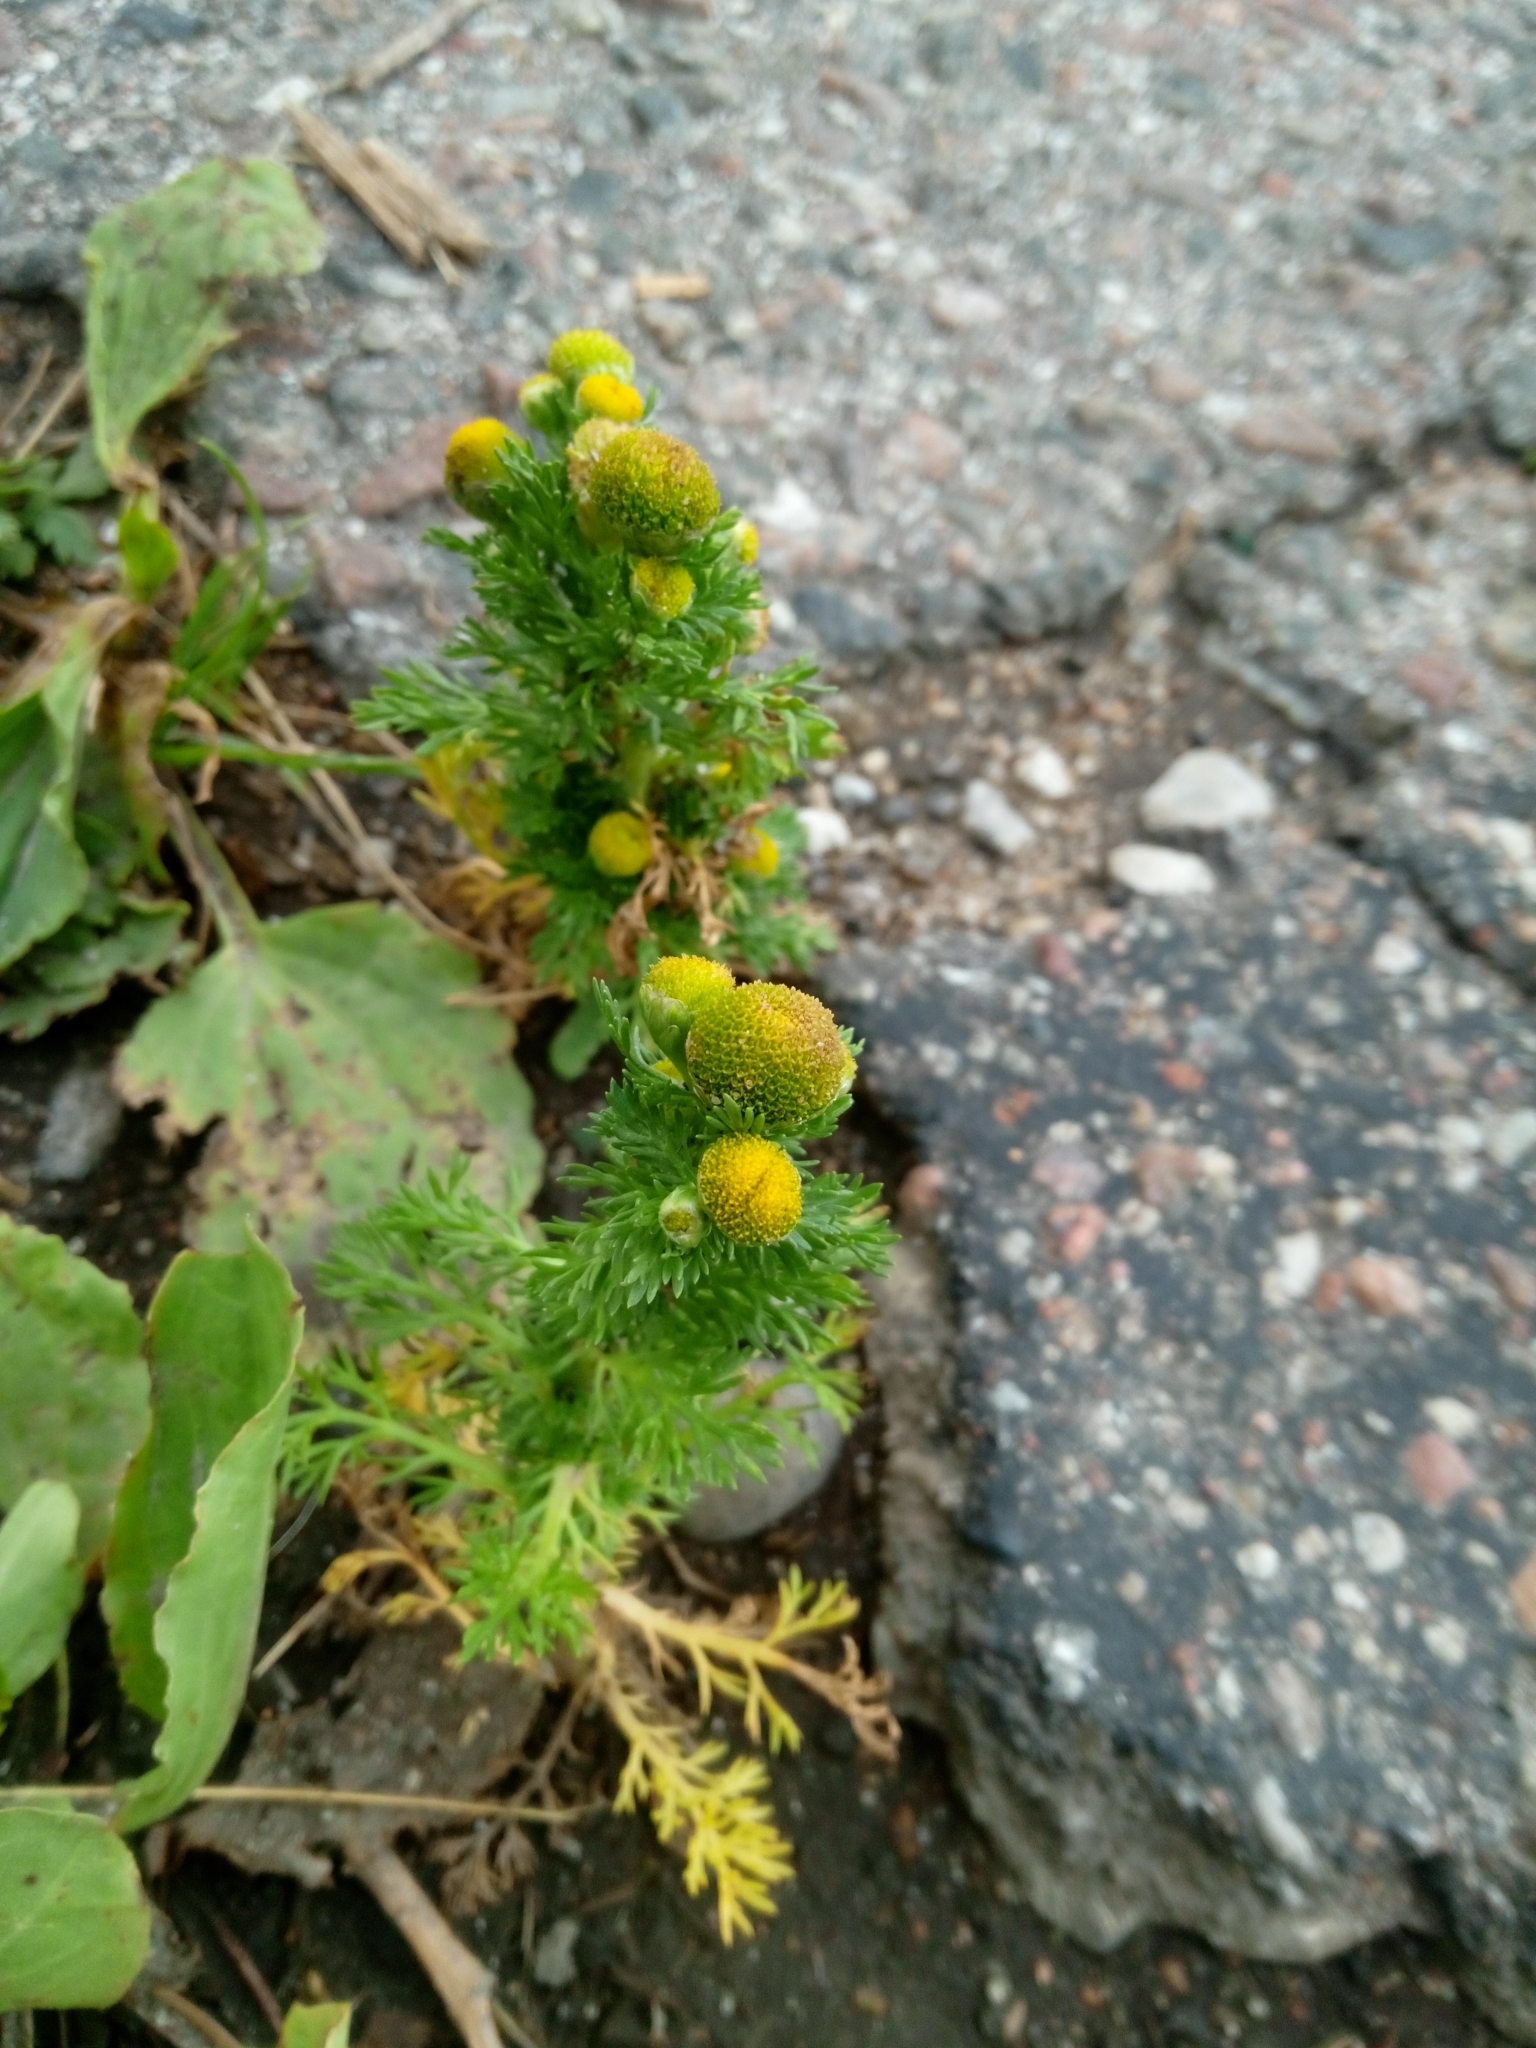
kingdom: Plantae
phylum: Tracheophyta
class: Magnoliopsida
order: Asterales
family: Asteraceae
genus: Matricaria
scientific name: Matricaria discoidea
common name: Disc mayweed
